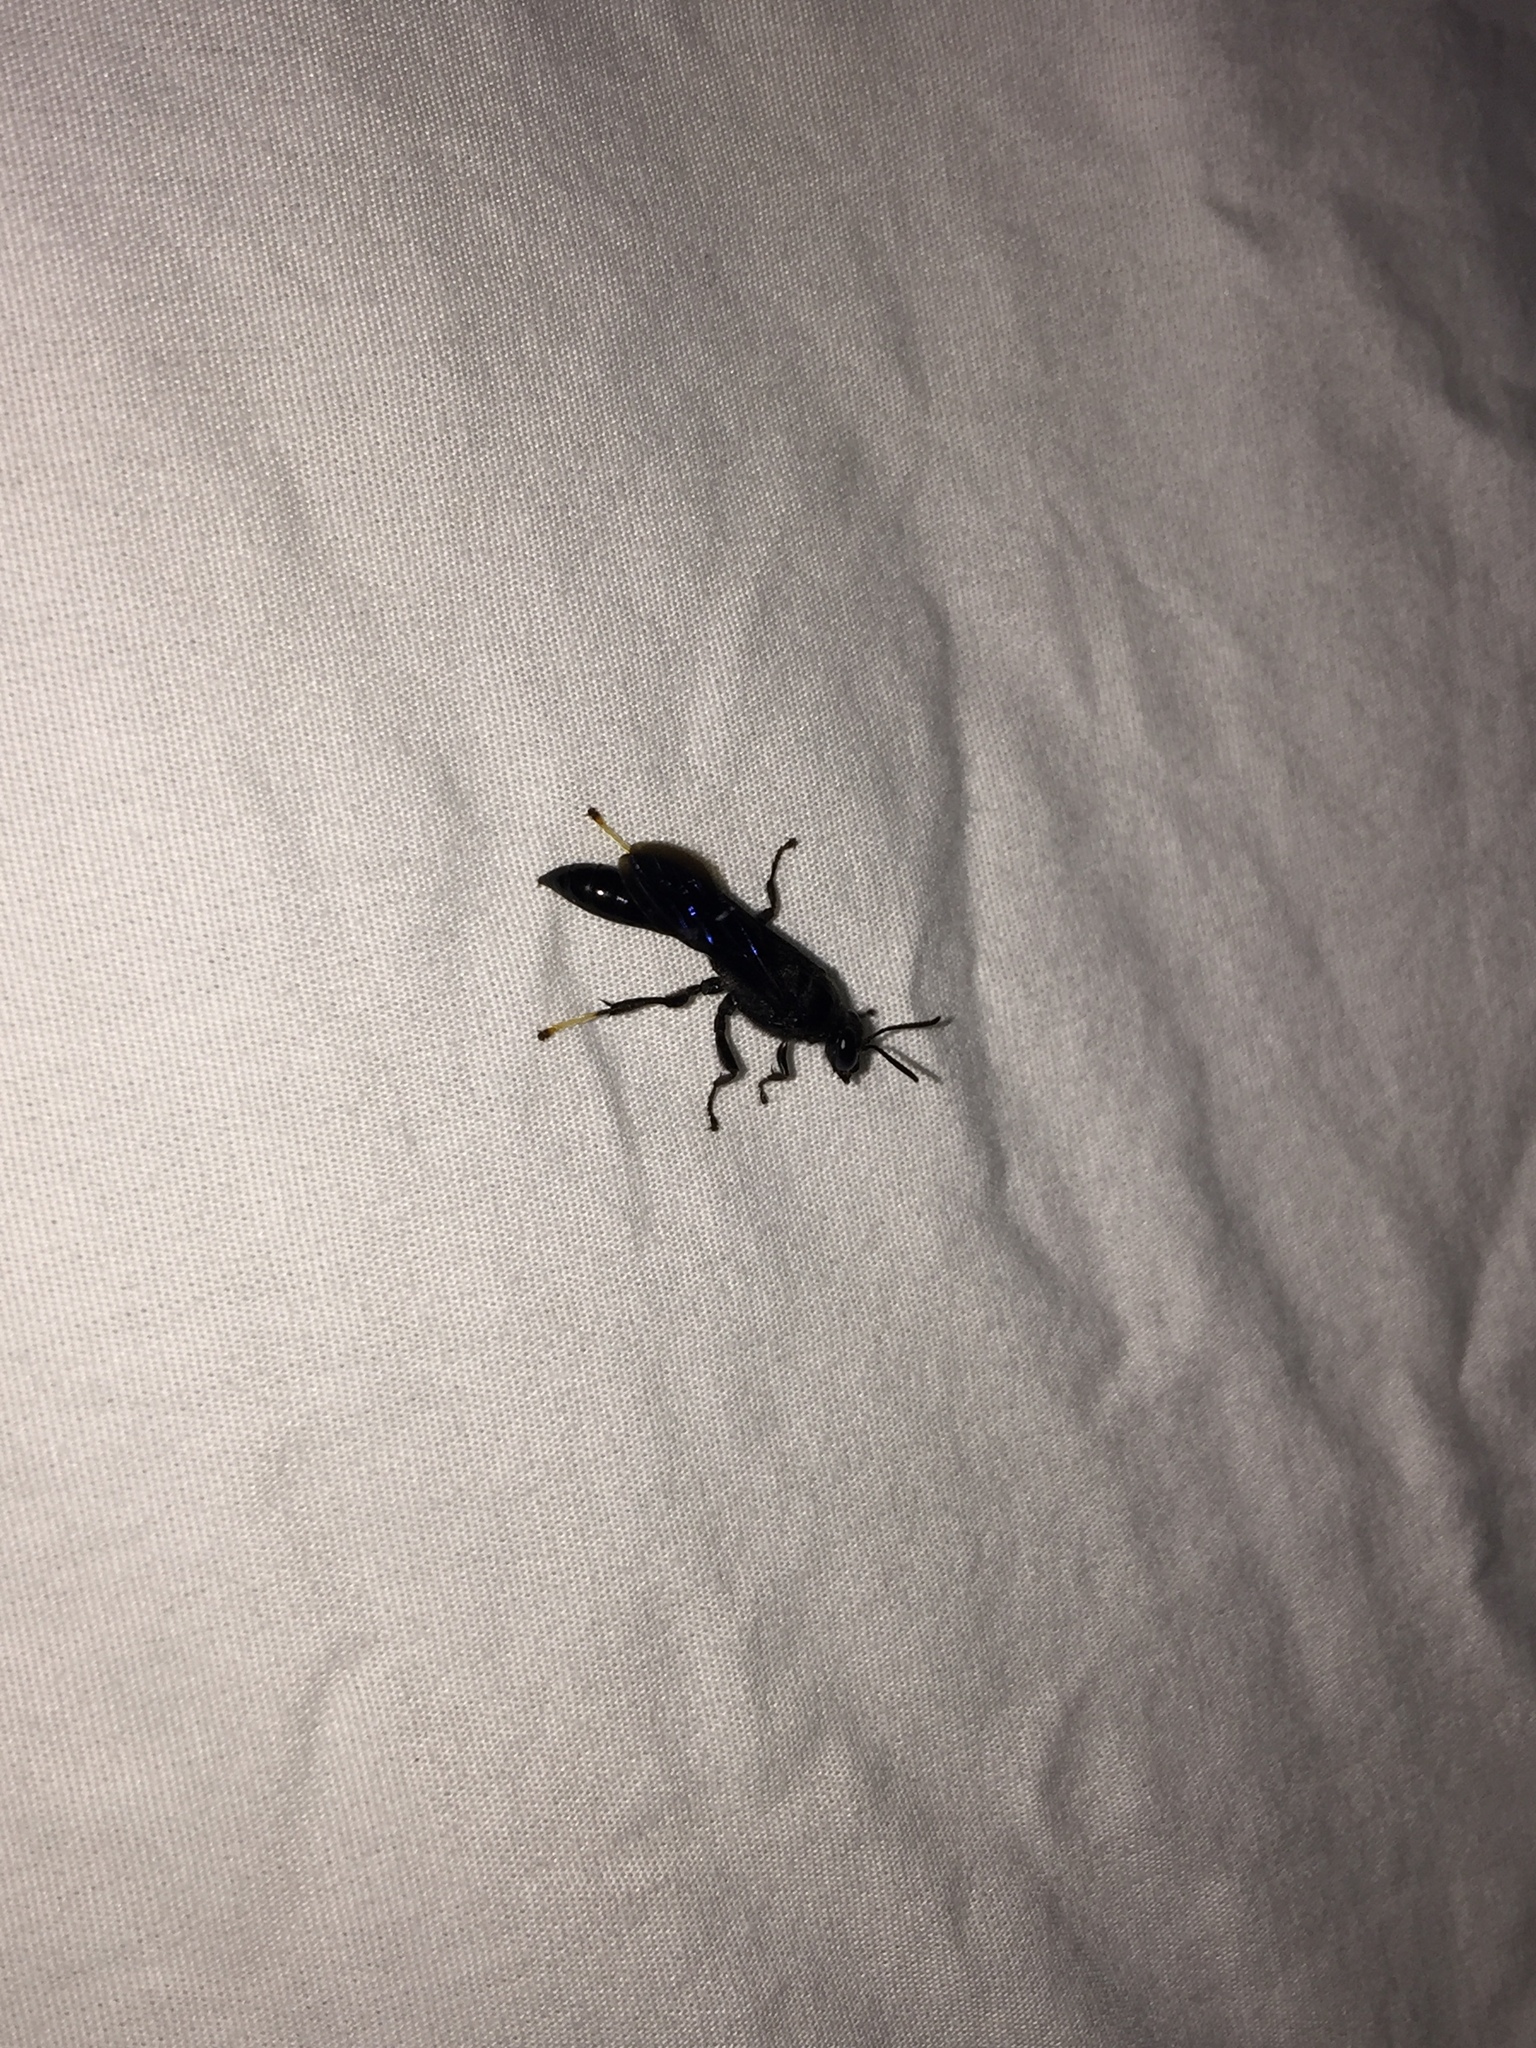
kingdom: Animalia
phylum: Arthropoda
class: Insecta
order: Hymenoptera
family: Crabronidae
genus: Trypoxylon
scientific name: Trypoxylon politum
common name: Organ-pipe mud-dauber wasp
